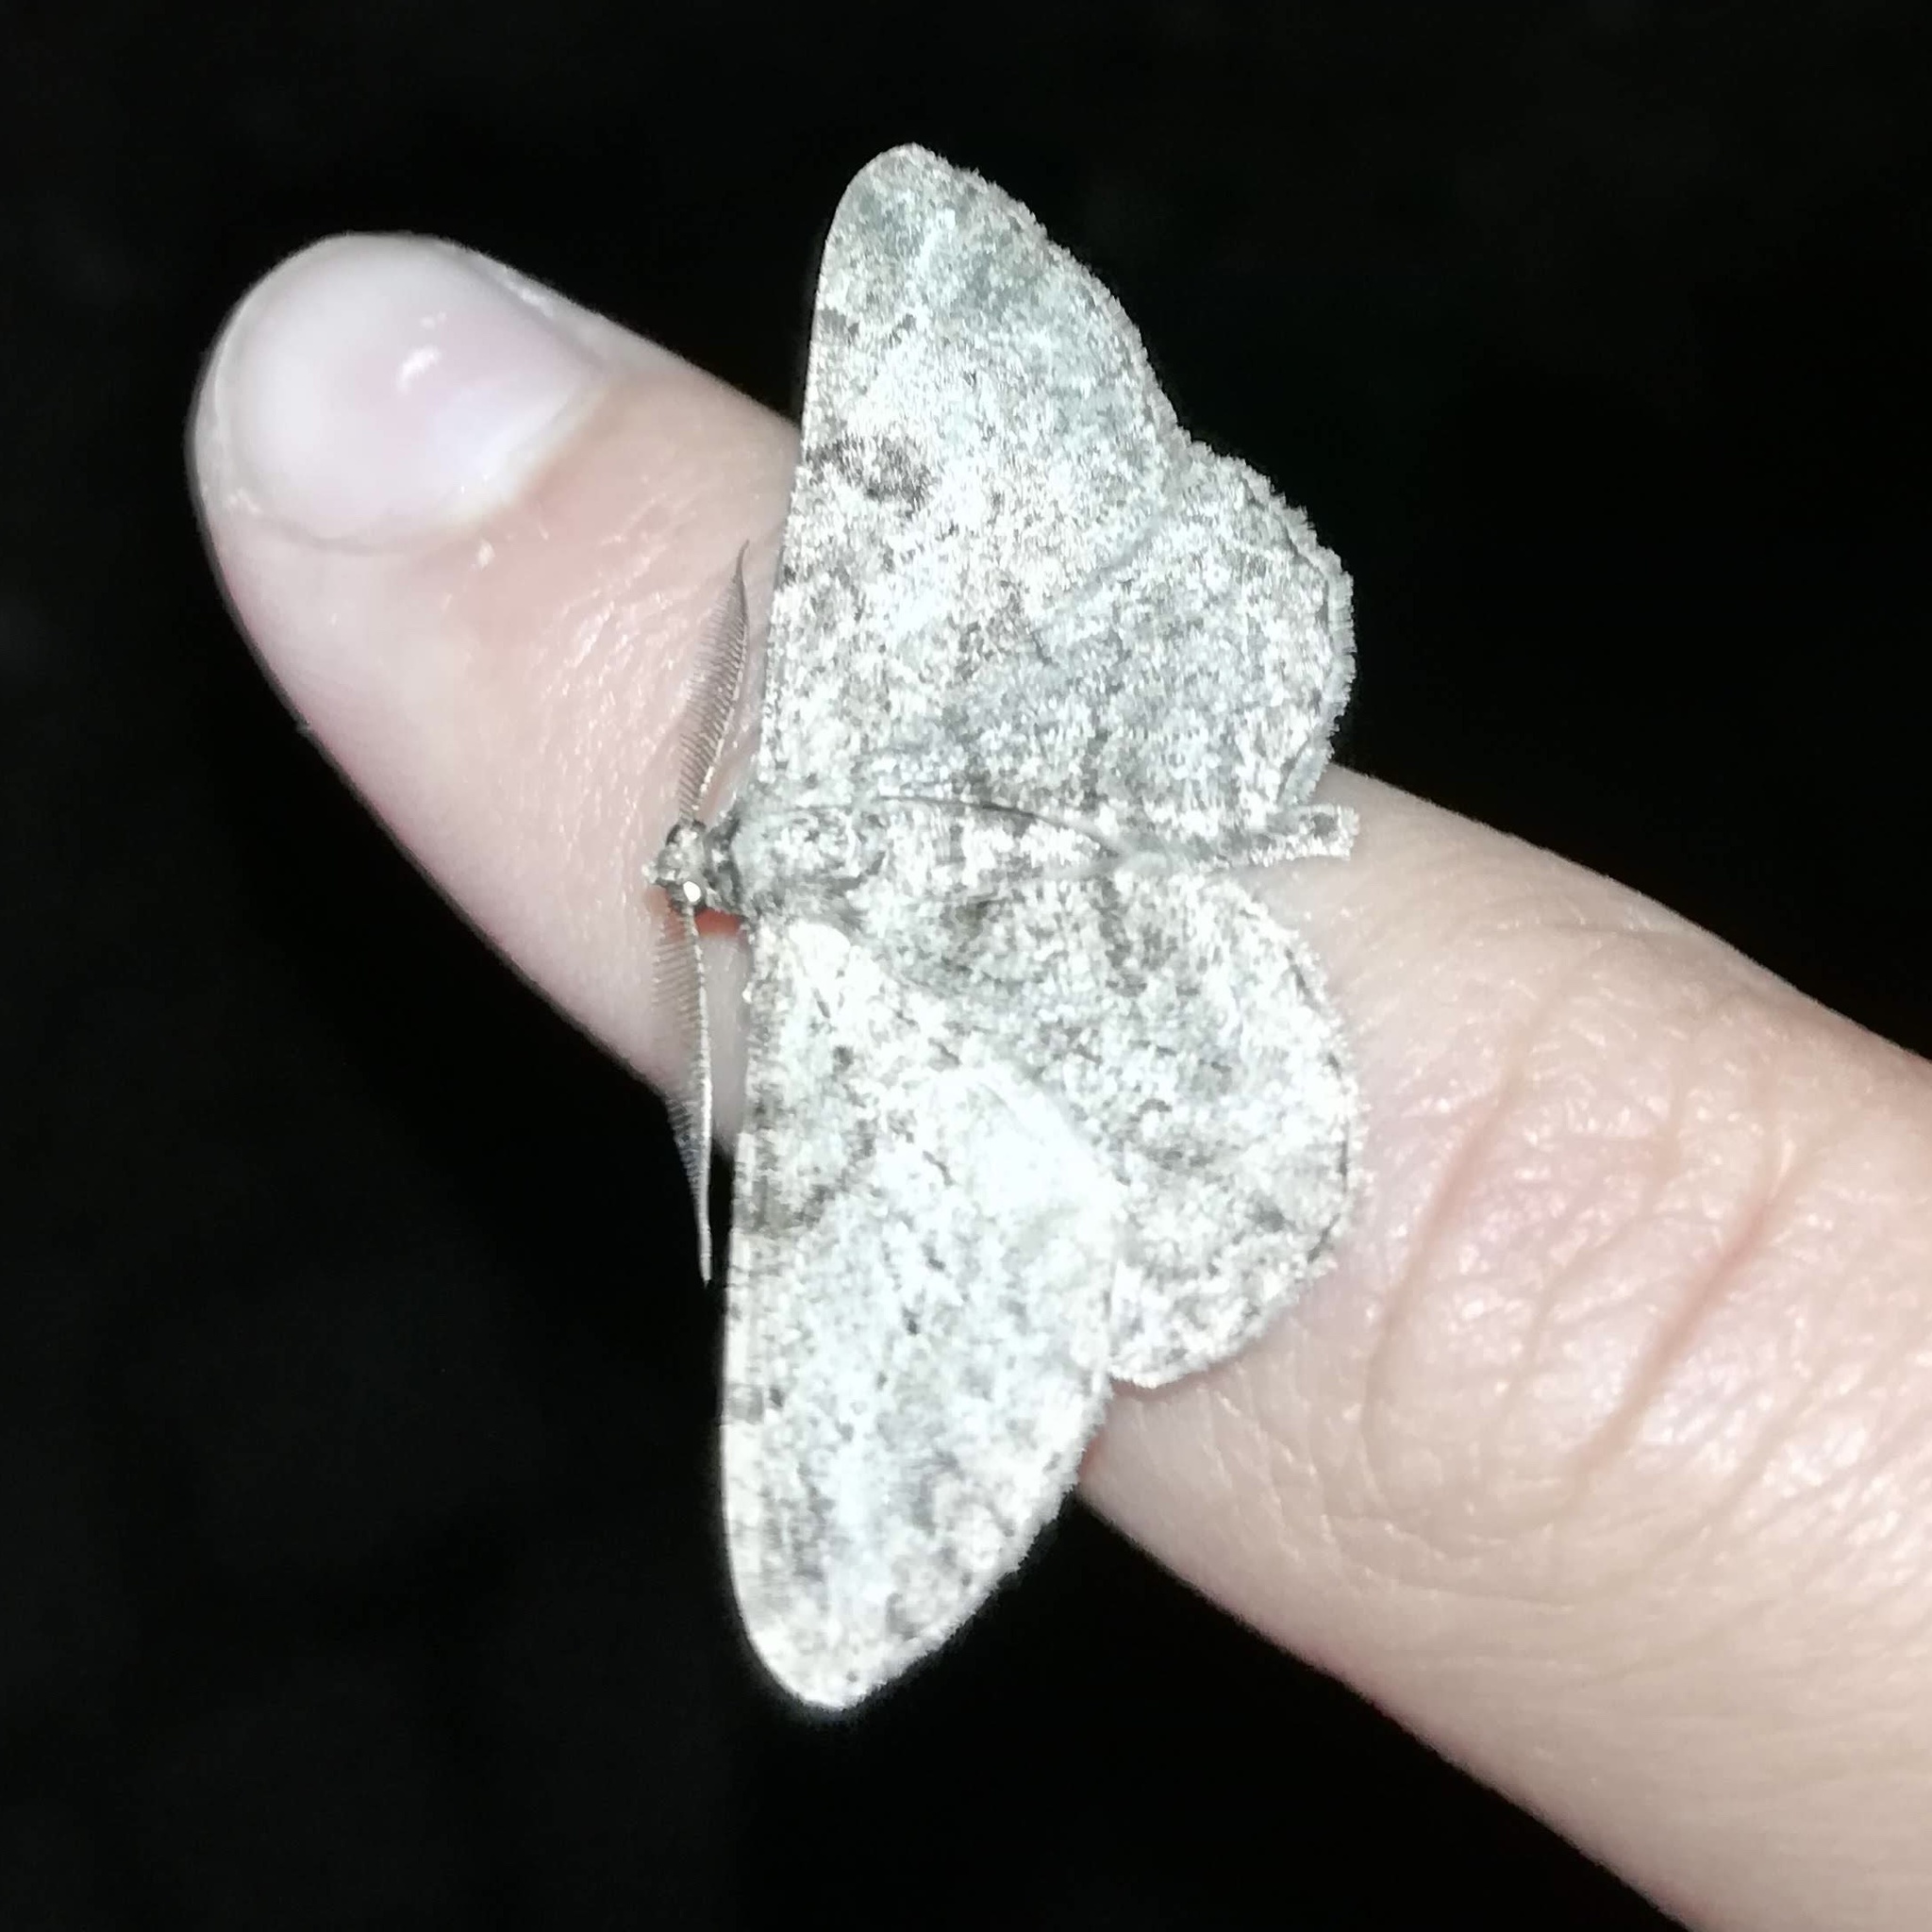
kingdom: Animalia
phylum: Arthropoda
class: Insecta
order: Lepidoptera
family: Geometridae
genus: Peribatodes
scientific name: Peribatodes rhomboidaria
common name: Willow beauty
